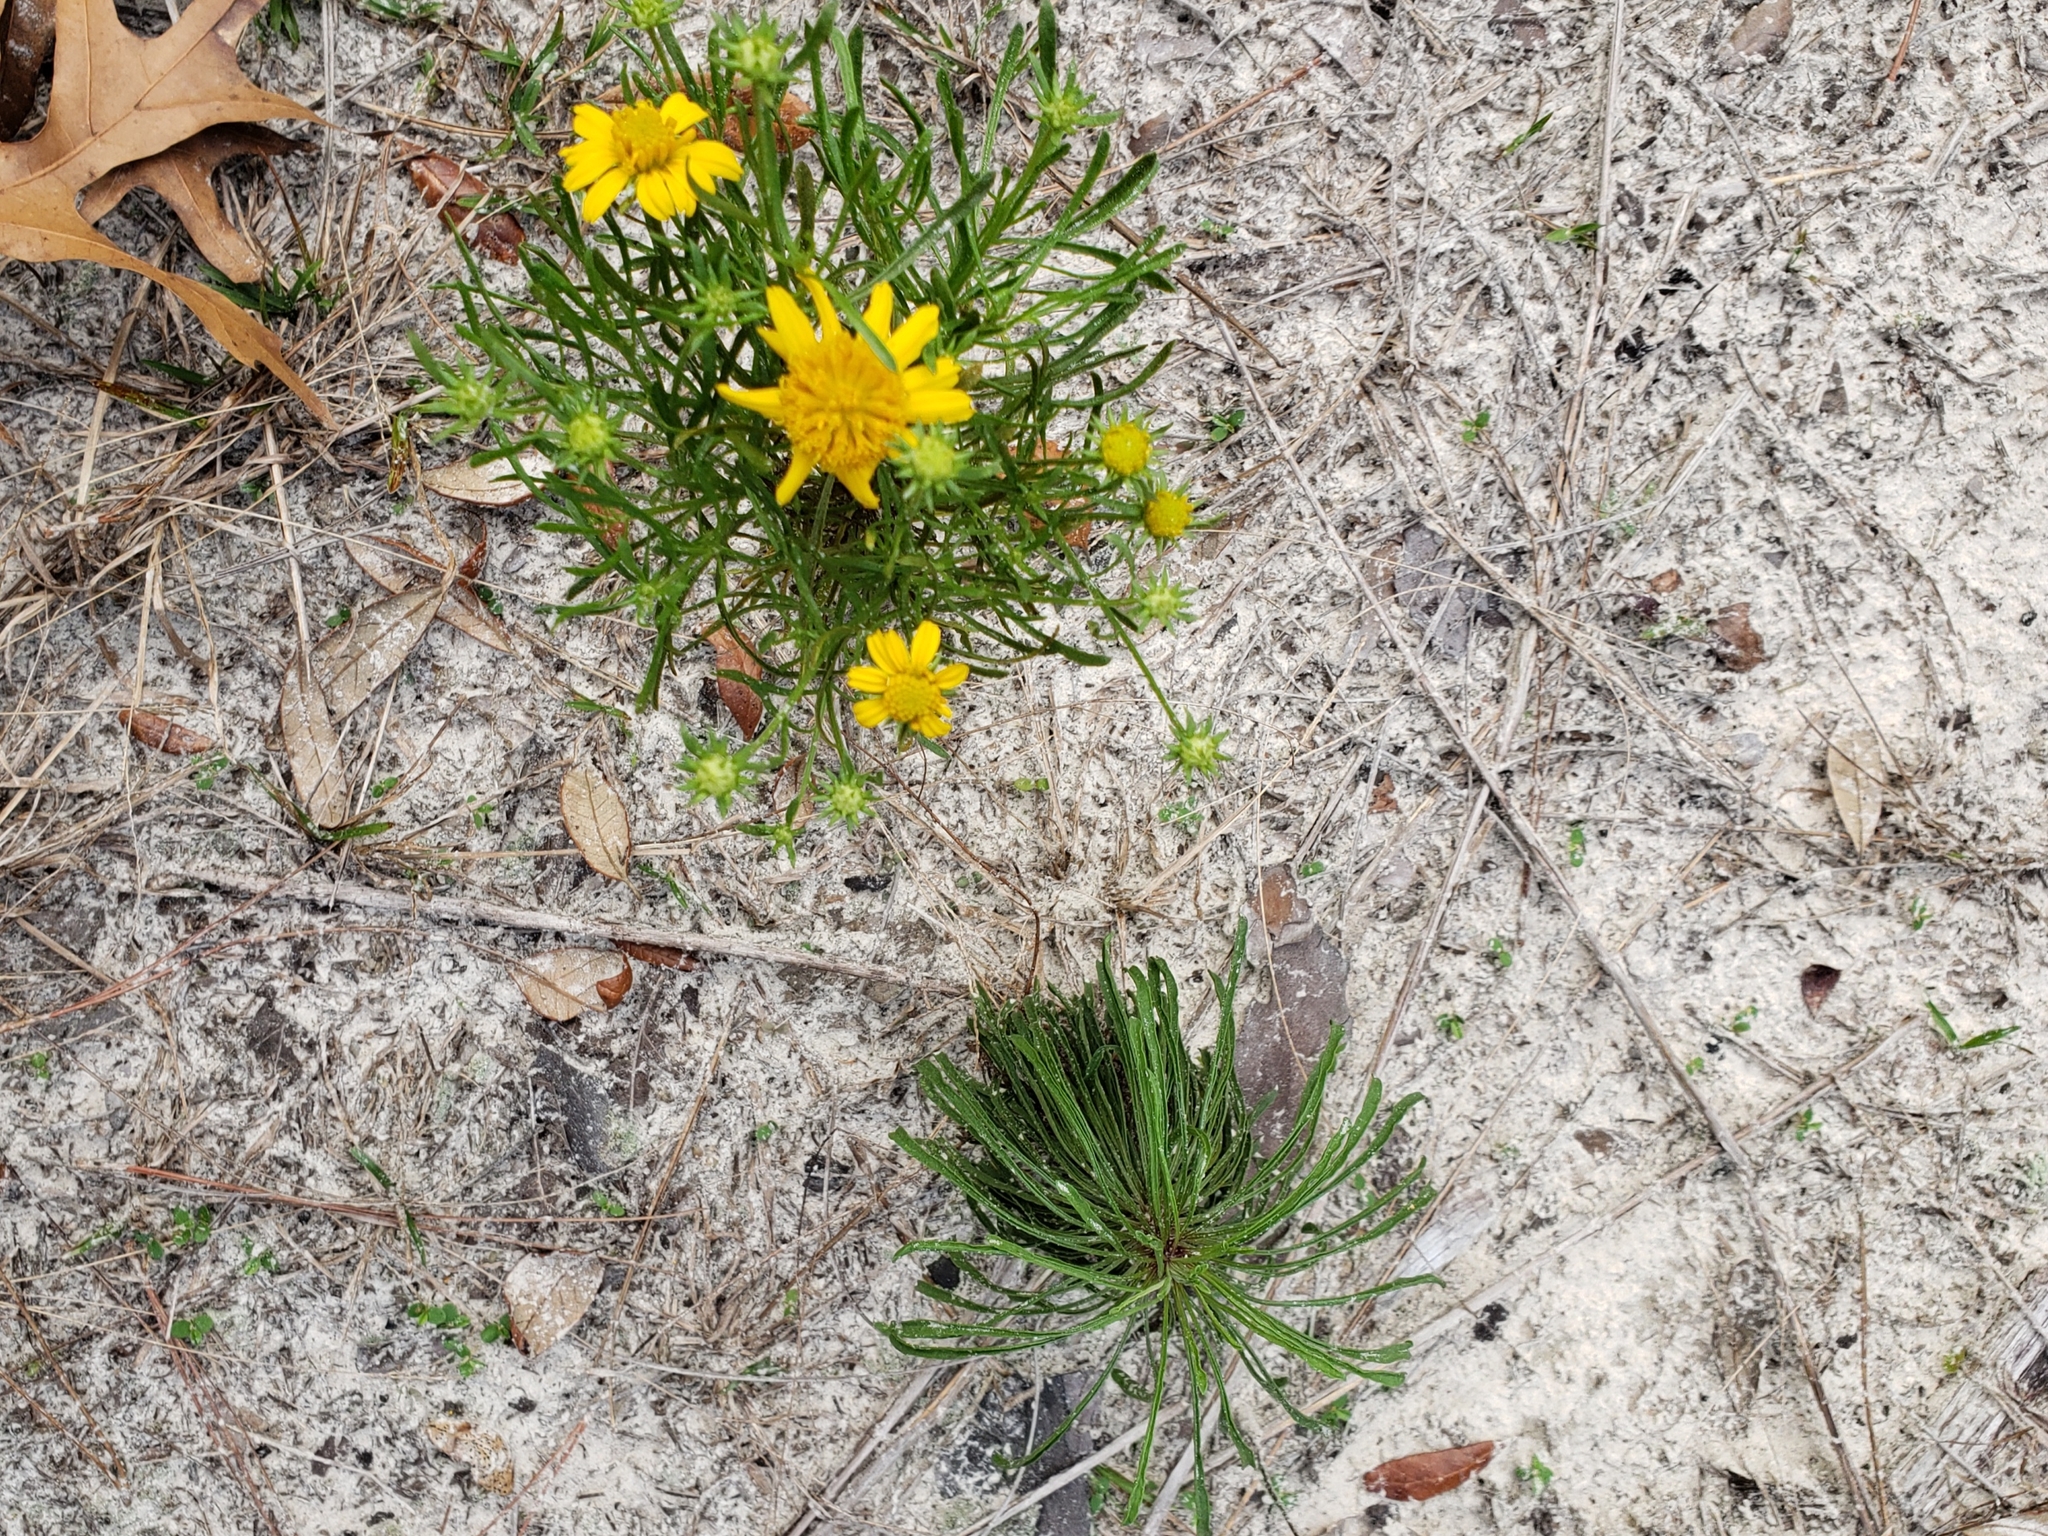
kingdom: Plantae
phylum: Tracheophyta
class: Magnoliopsida
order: Asterales
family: Asteraceae
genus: Balduina
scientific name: Balduina angustifolia
